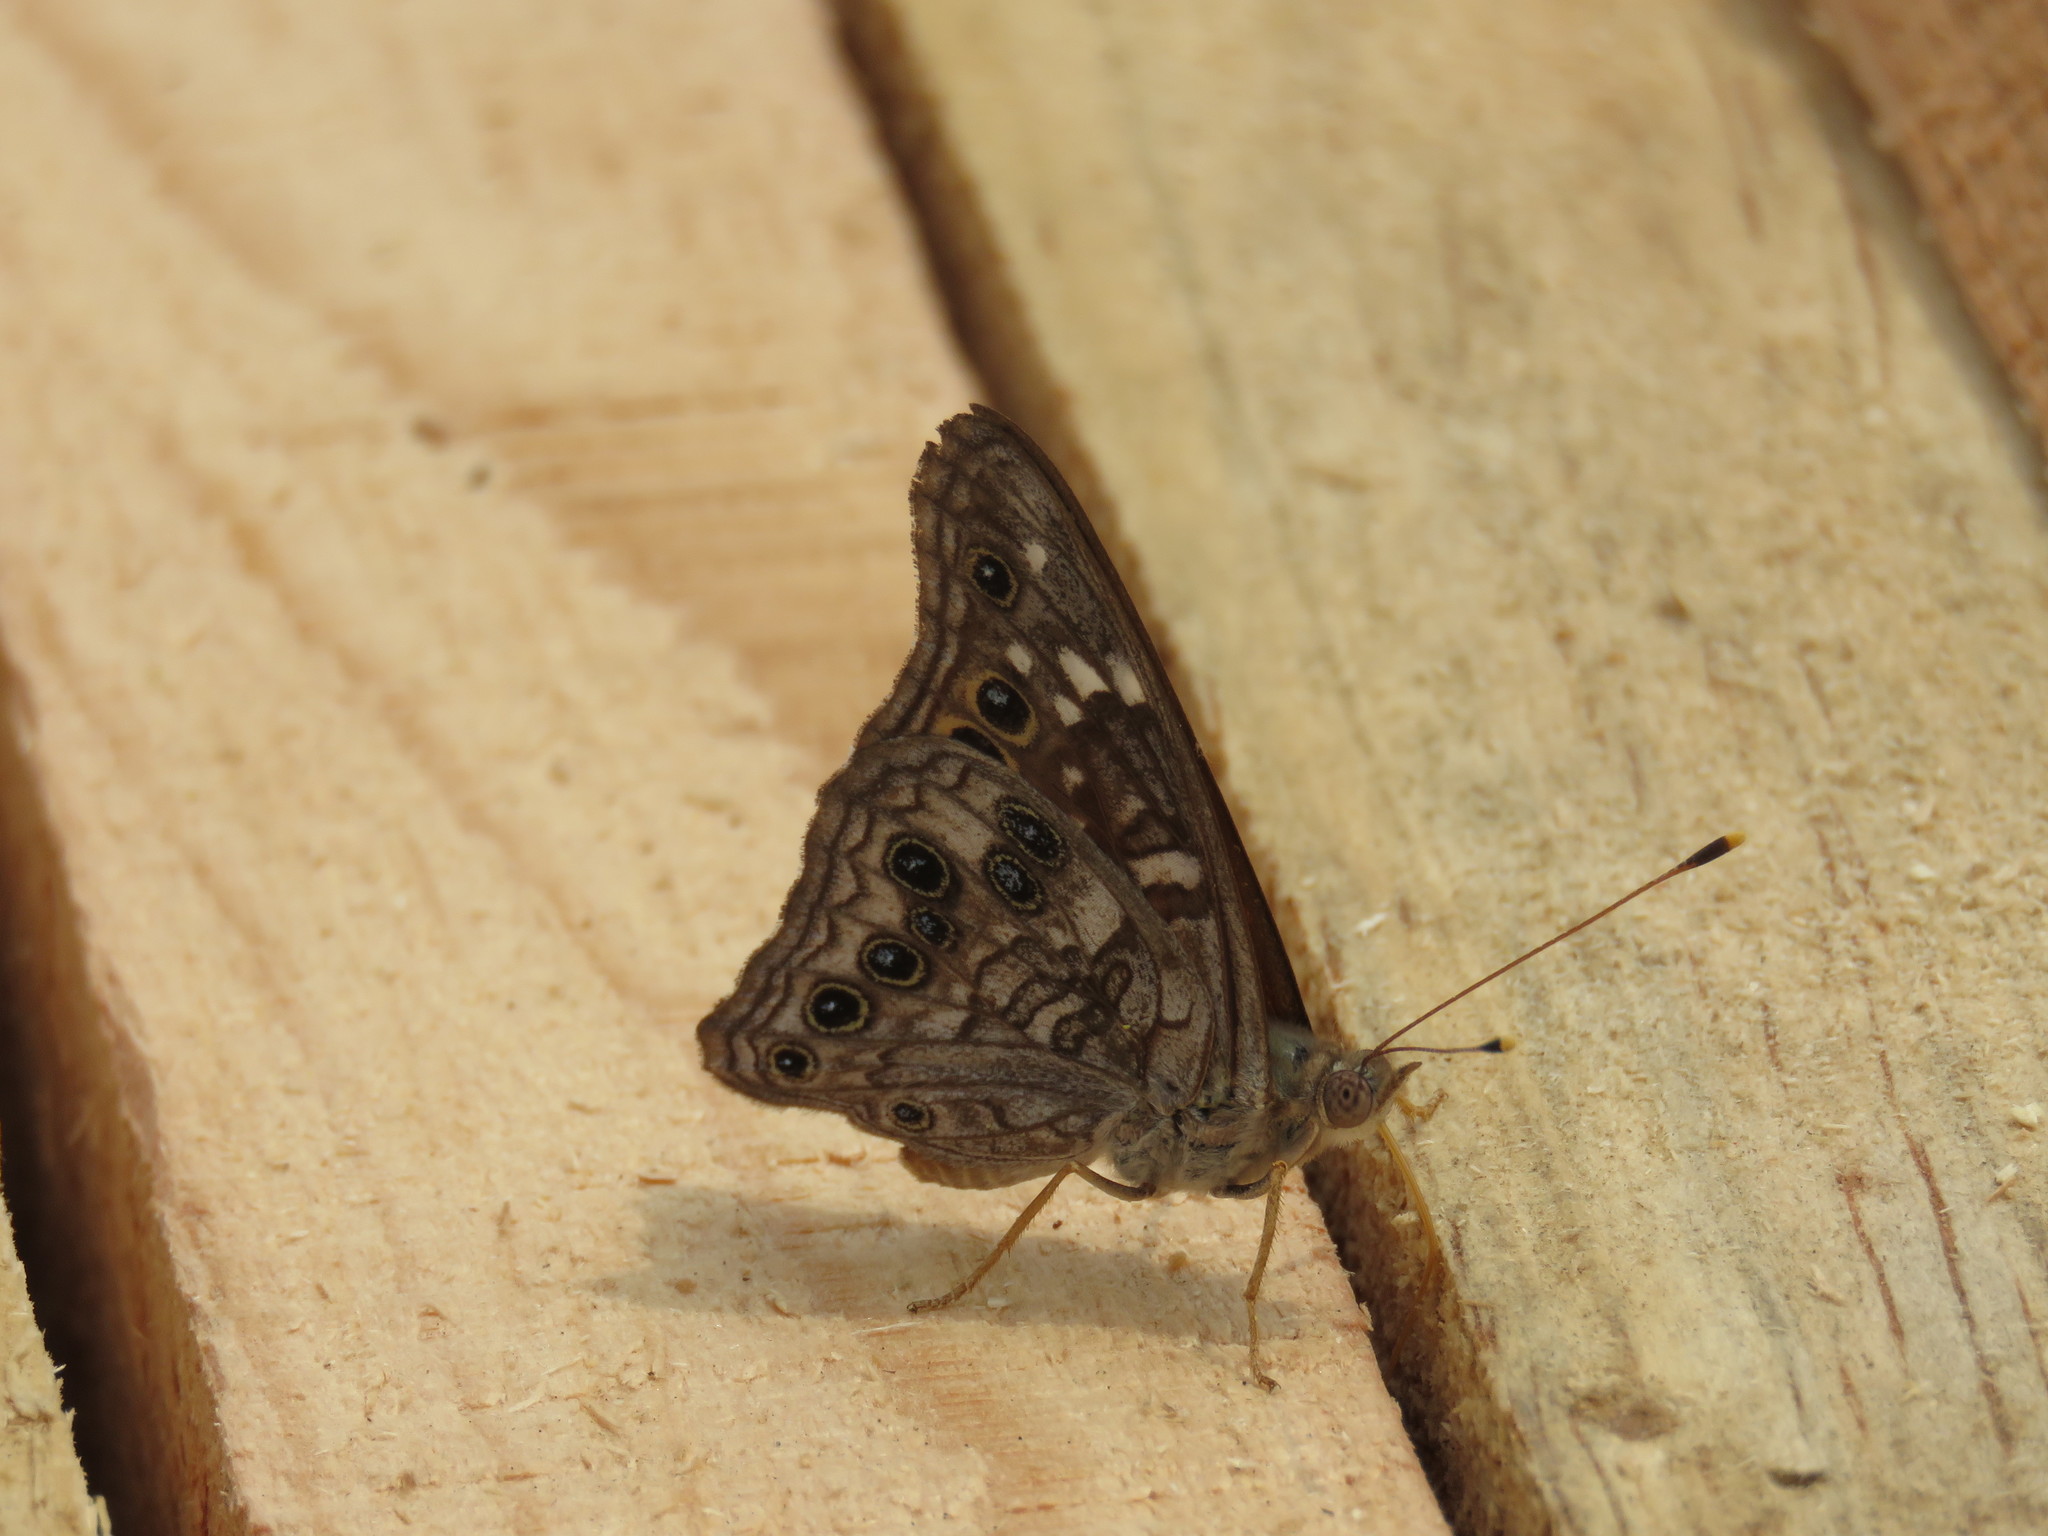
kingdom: Animalia
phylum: Arthropoda
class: Insecta
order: Lepidoptera
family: Nymphalidae
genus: Asterocampa
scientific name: Asterocampa leilia
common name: Empress leilia
